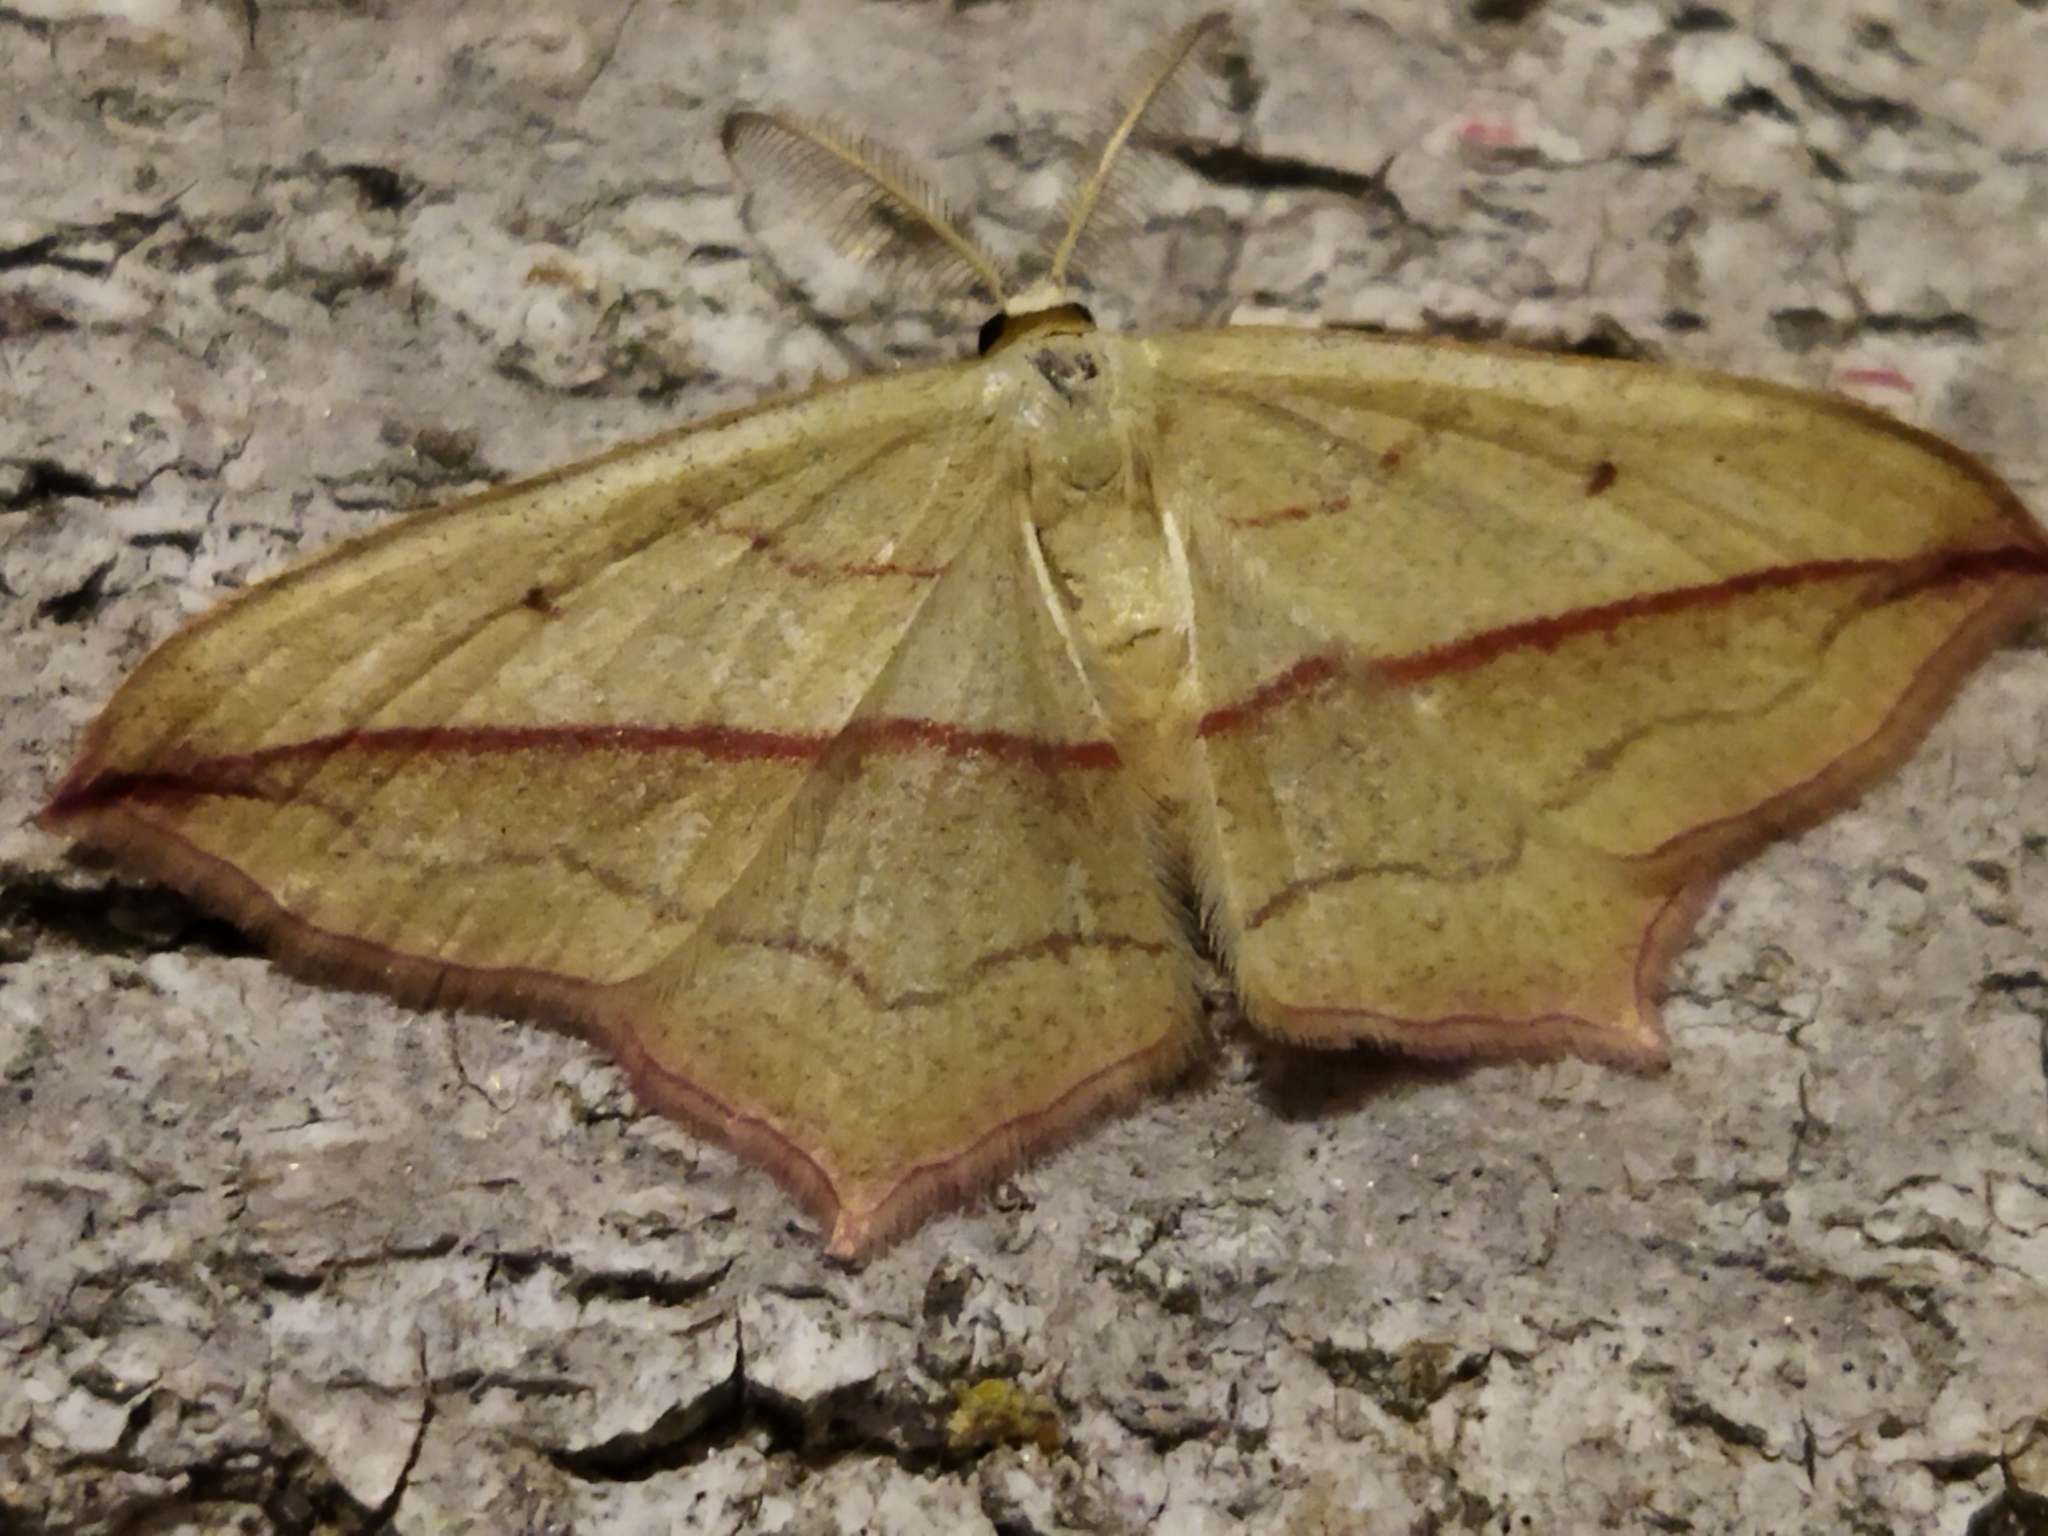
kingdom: Animalia
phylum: Arthropoda
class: Insecta
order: Lepidoptera
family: Geometridae
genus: Timandra
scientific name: Timandra comae
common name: Blood-vein
